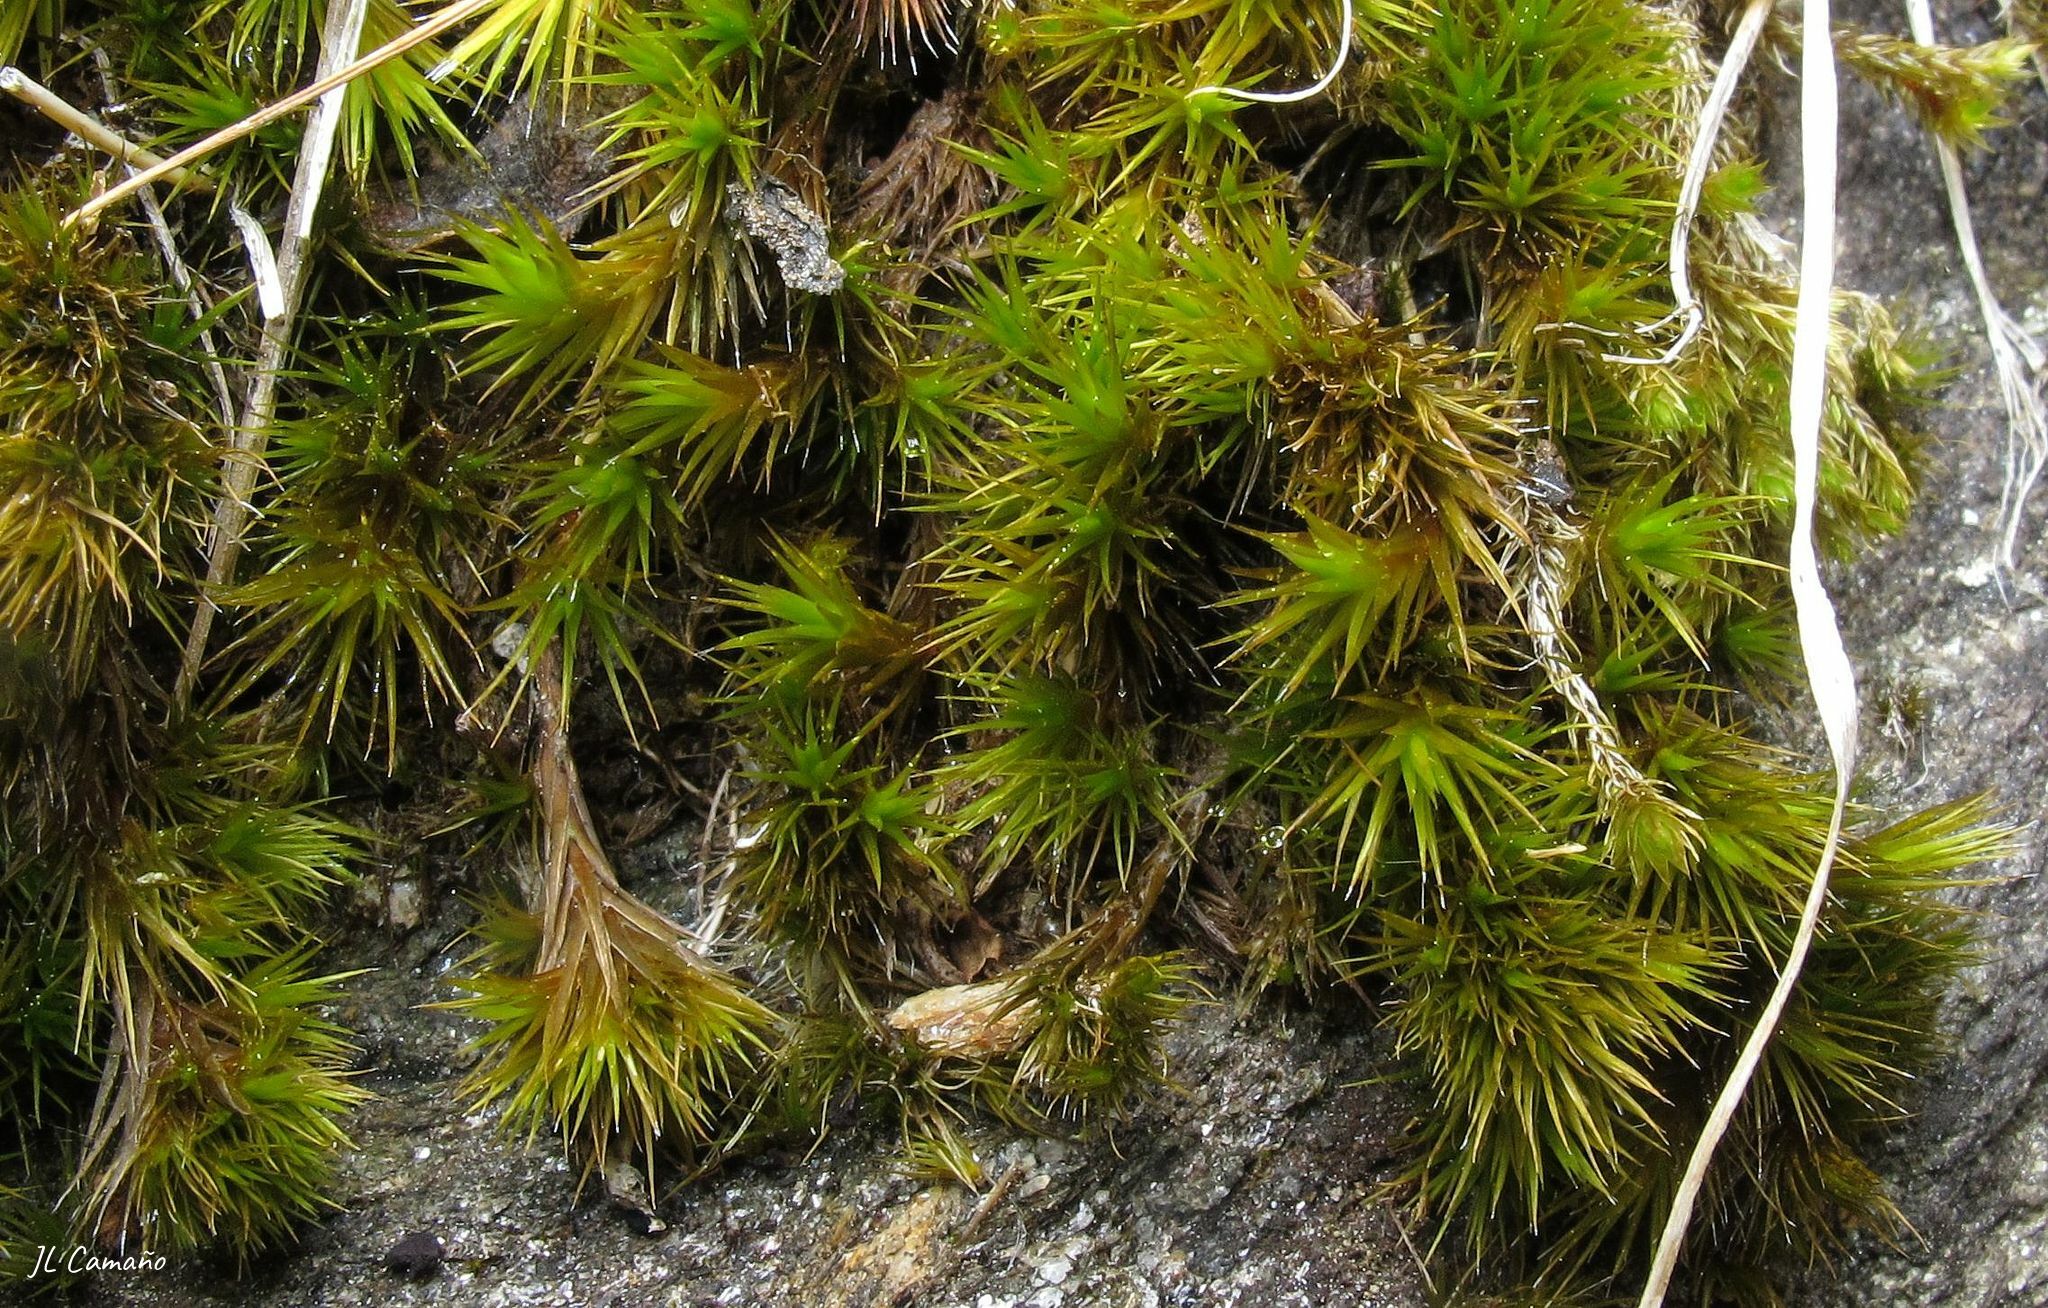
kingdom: Plantae
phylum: Bryophyta
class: Bryopsida
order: Dicranales
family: Leucobryaceae
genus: Campylopus
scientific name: Campylopus pilifer
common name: Campylopus moss
